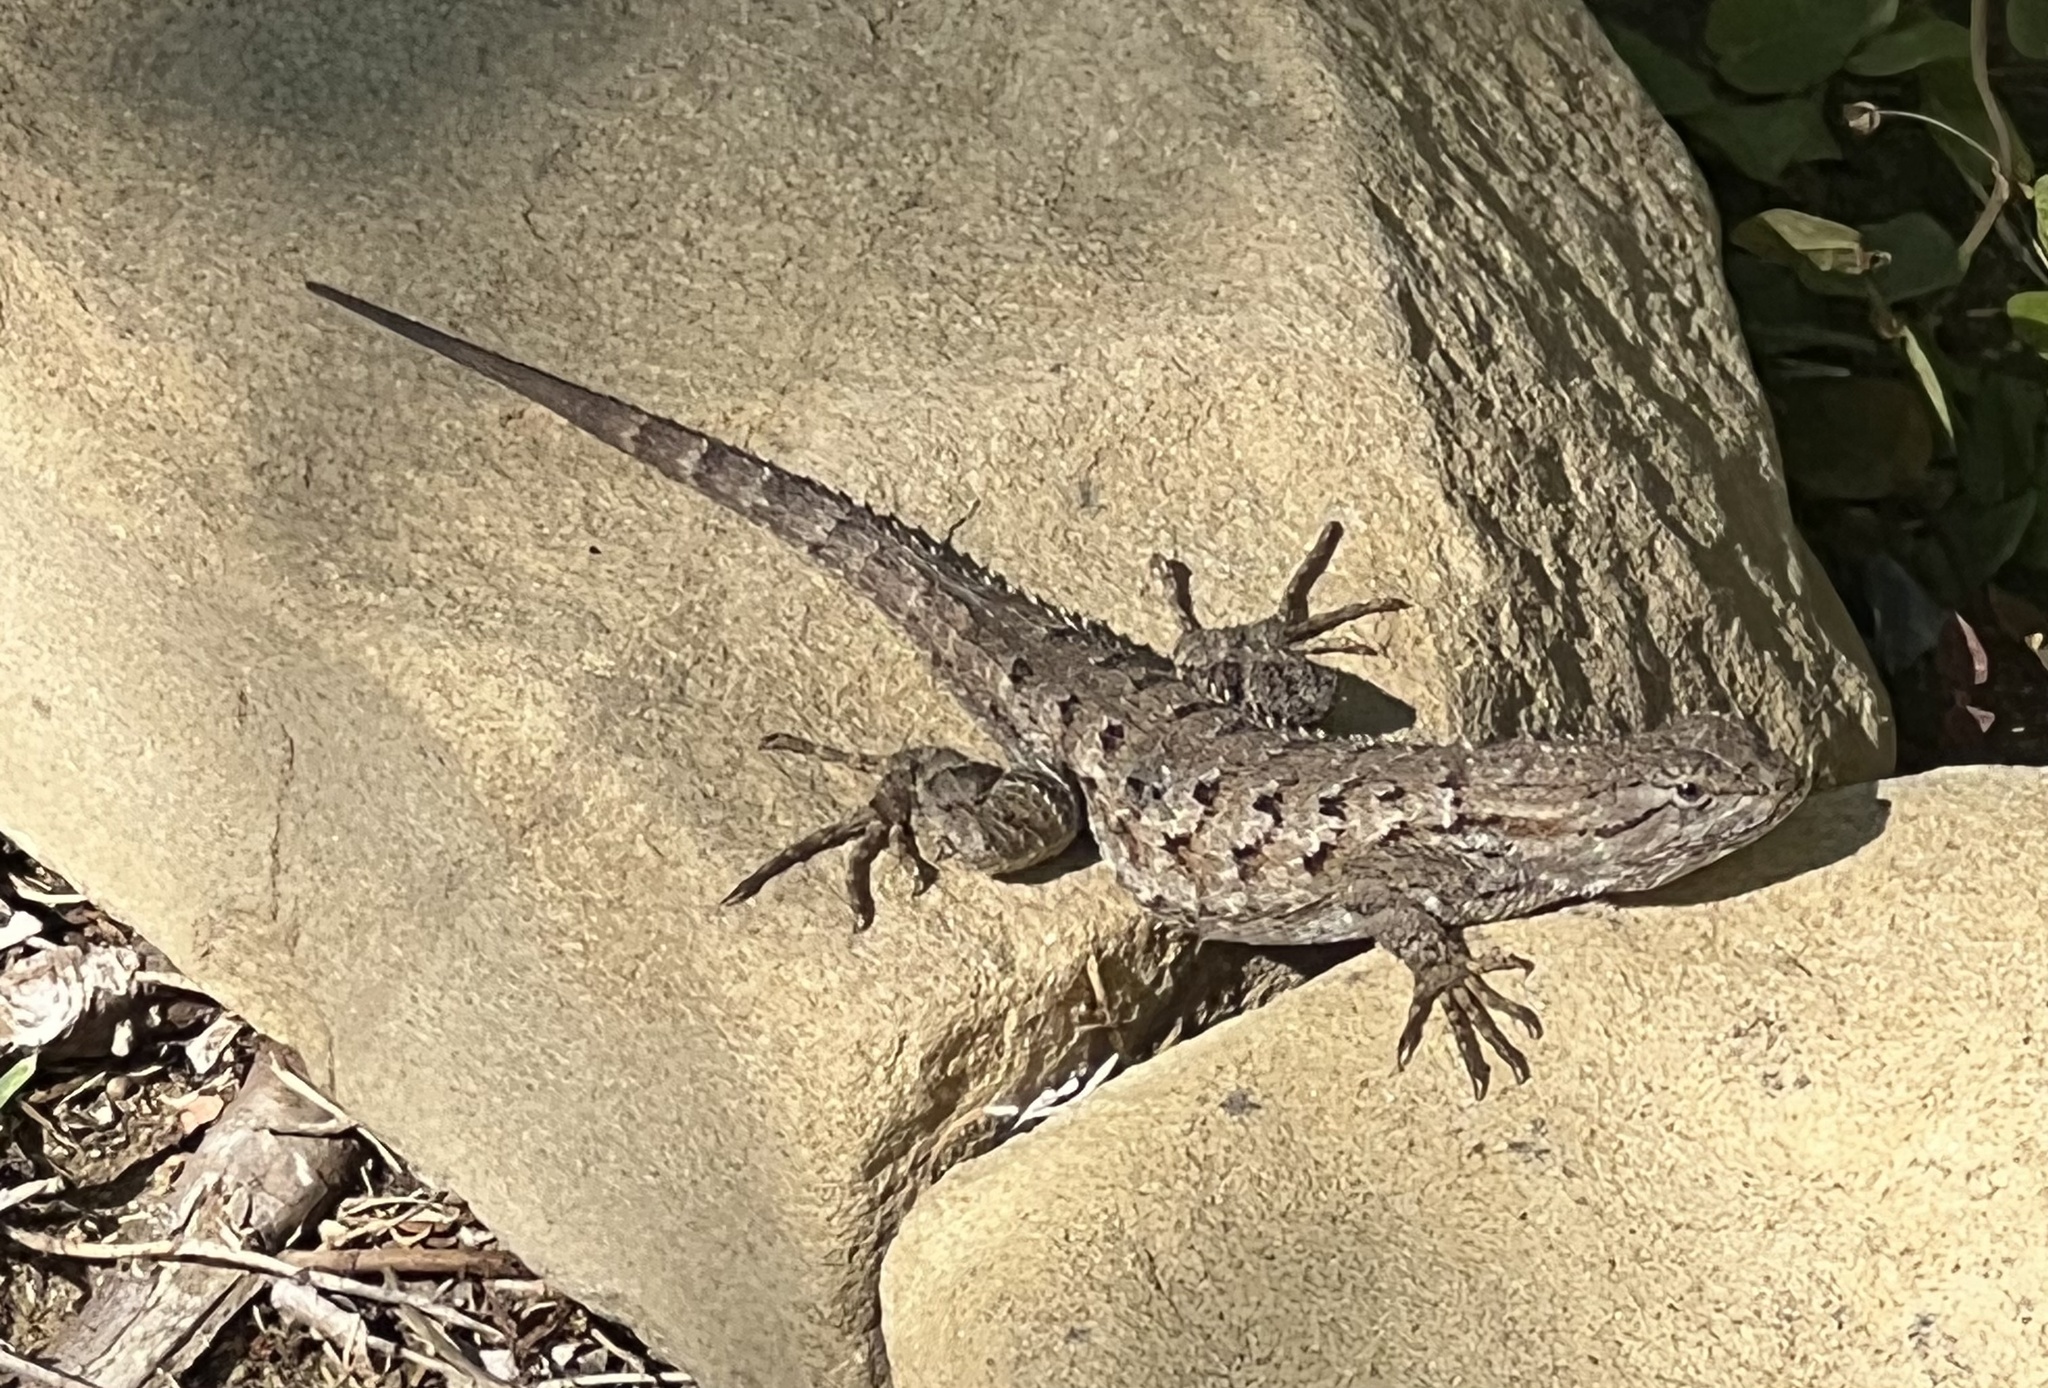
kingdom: Animalia
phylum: Chordata
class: Squamata
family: Phrynosomatidae
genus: Sceloporus
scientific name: Sceloporus occidentalis
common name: Western fence lizard
